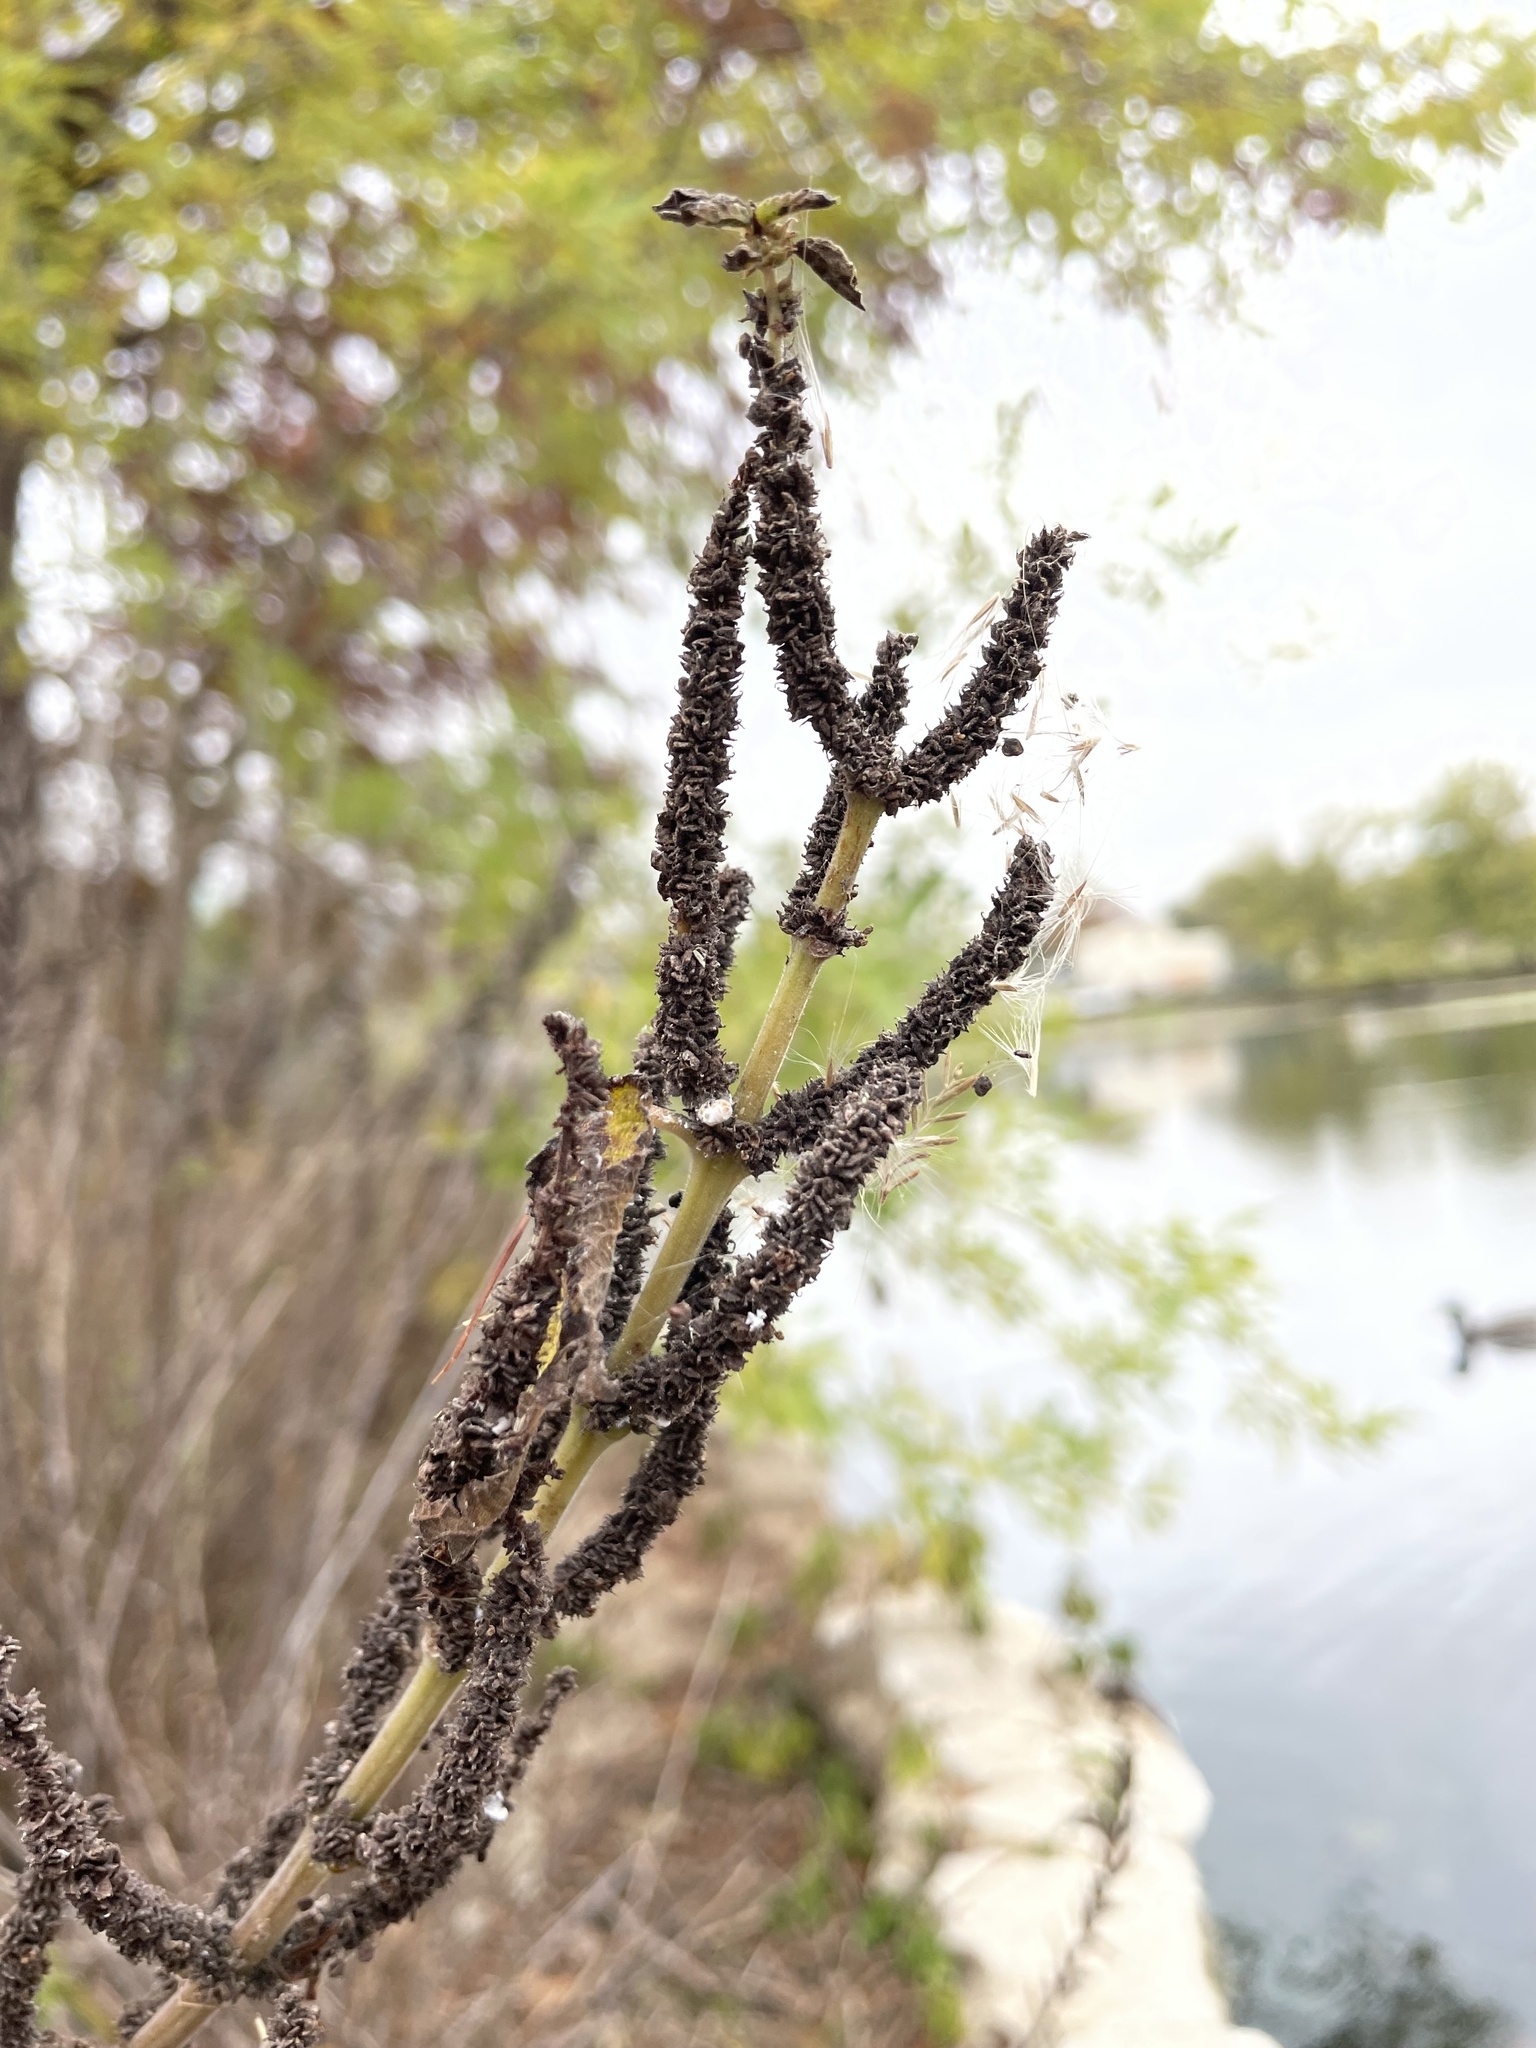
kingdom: Plantae
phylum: Tracheophyta
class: Magnoliopsida
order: Rosales
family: Urticaceae
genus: Boehmeria
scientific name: Boehmeria cylindrica
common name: Bog-hemp
